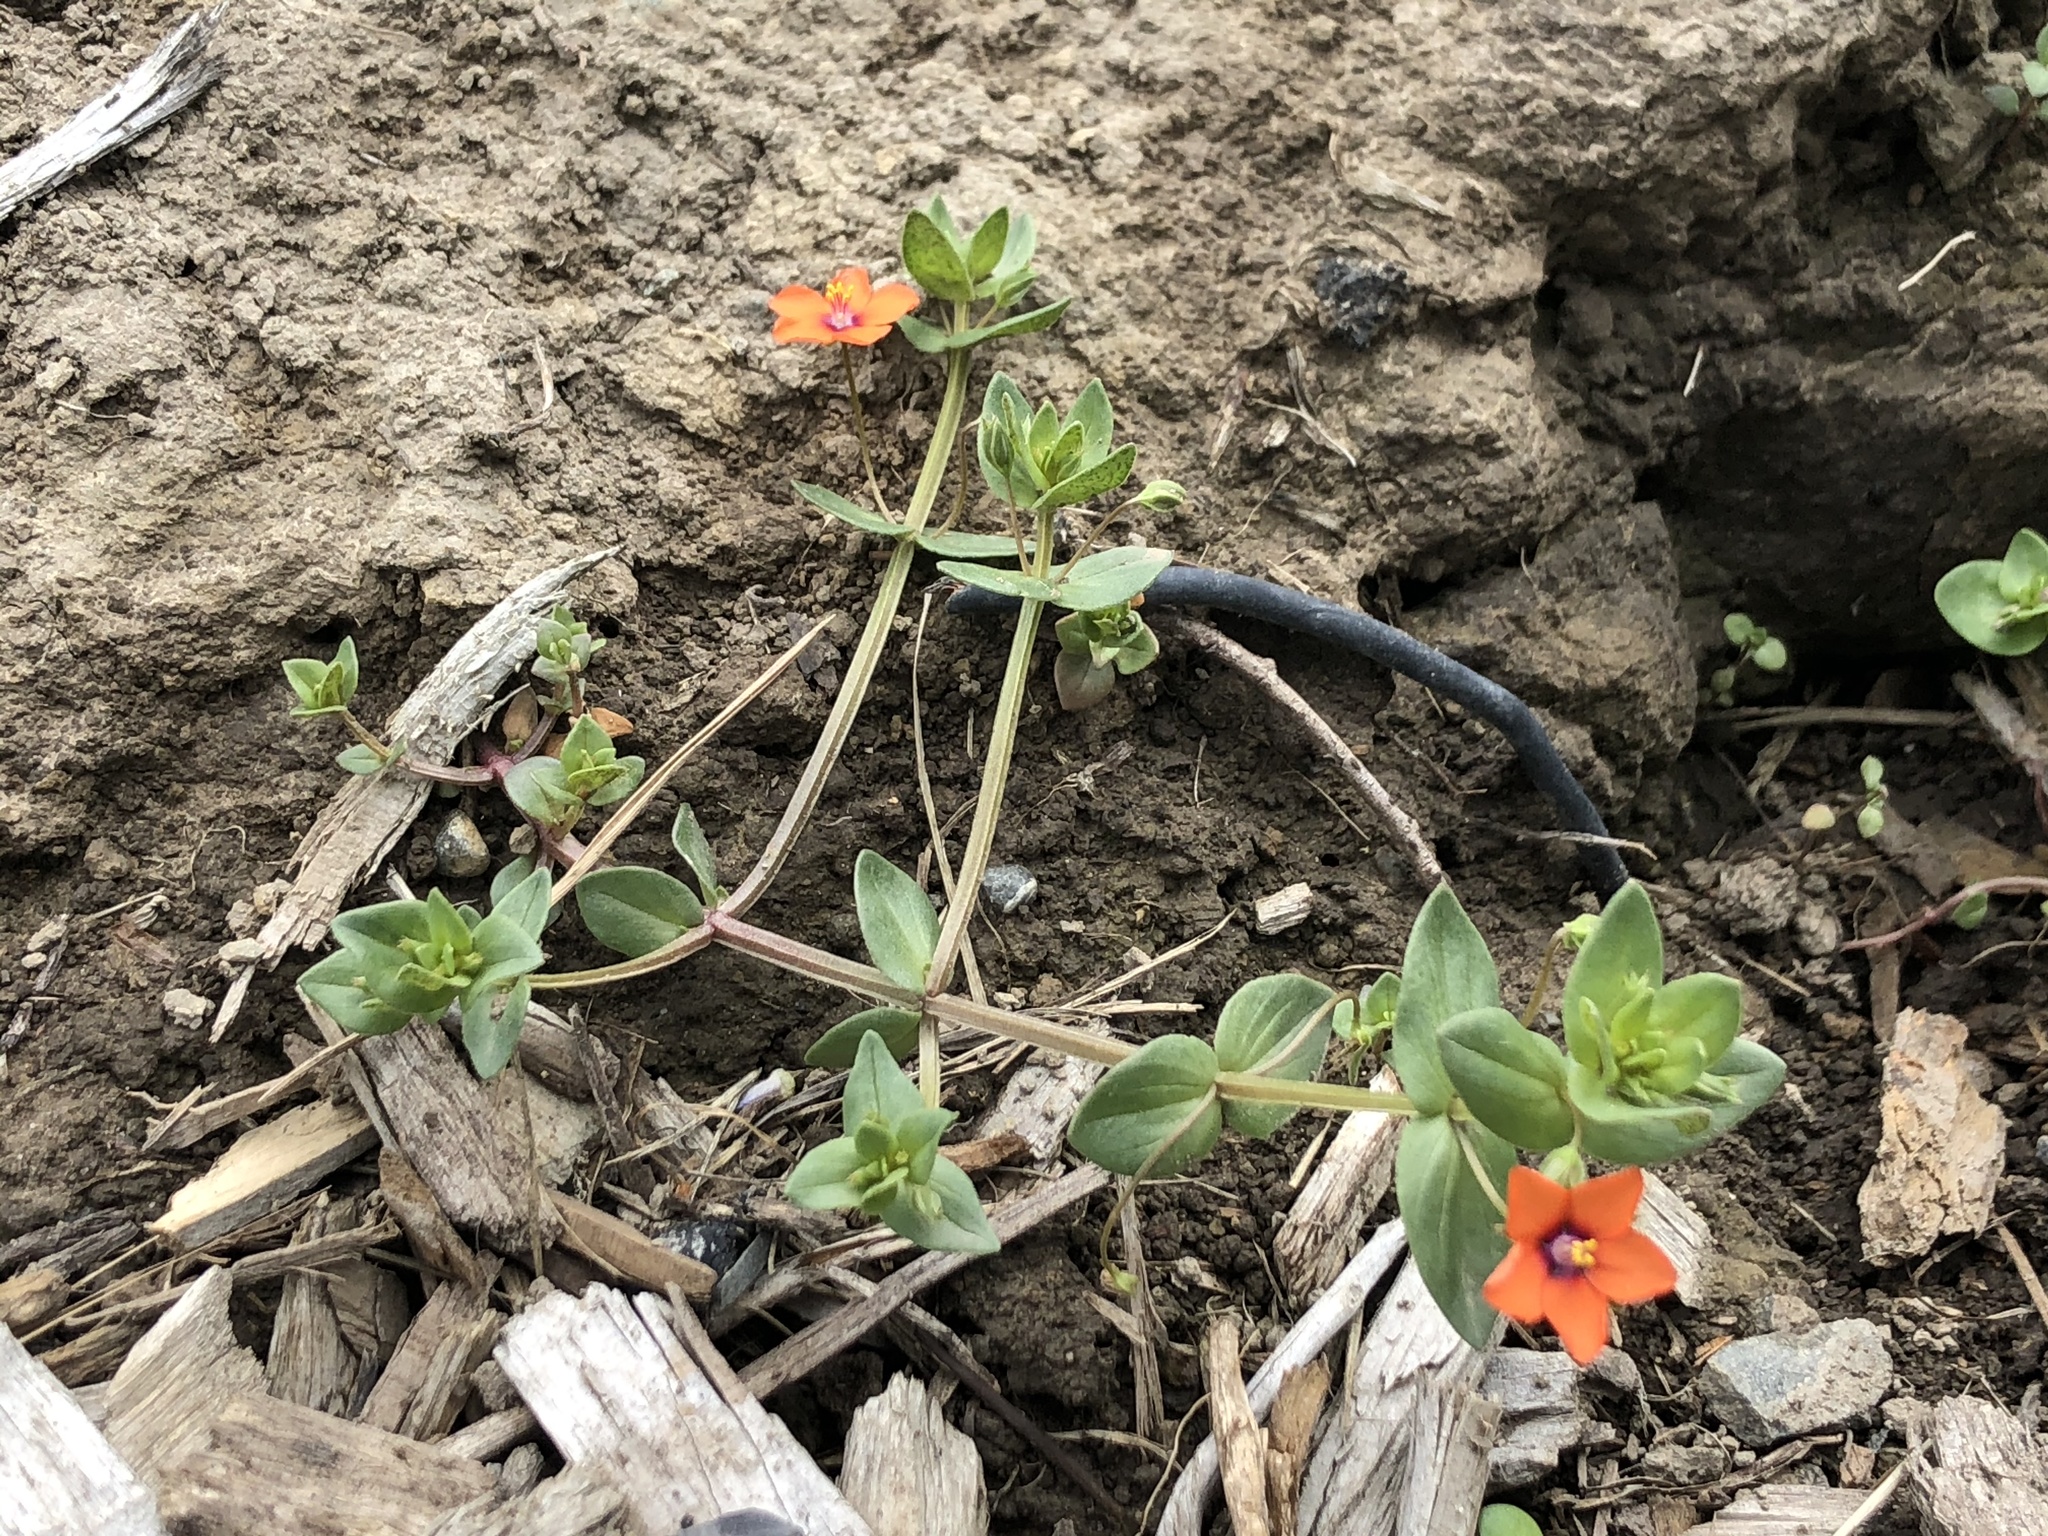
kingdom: Plantae
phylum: Tracheophyta
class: Magnoliopsida
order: Ericales
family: Primulaceae
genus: Lysimachia
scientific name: Lysimachia arvensis
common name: Scarlet pimpernel
